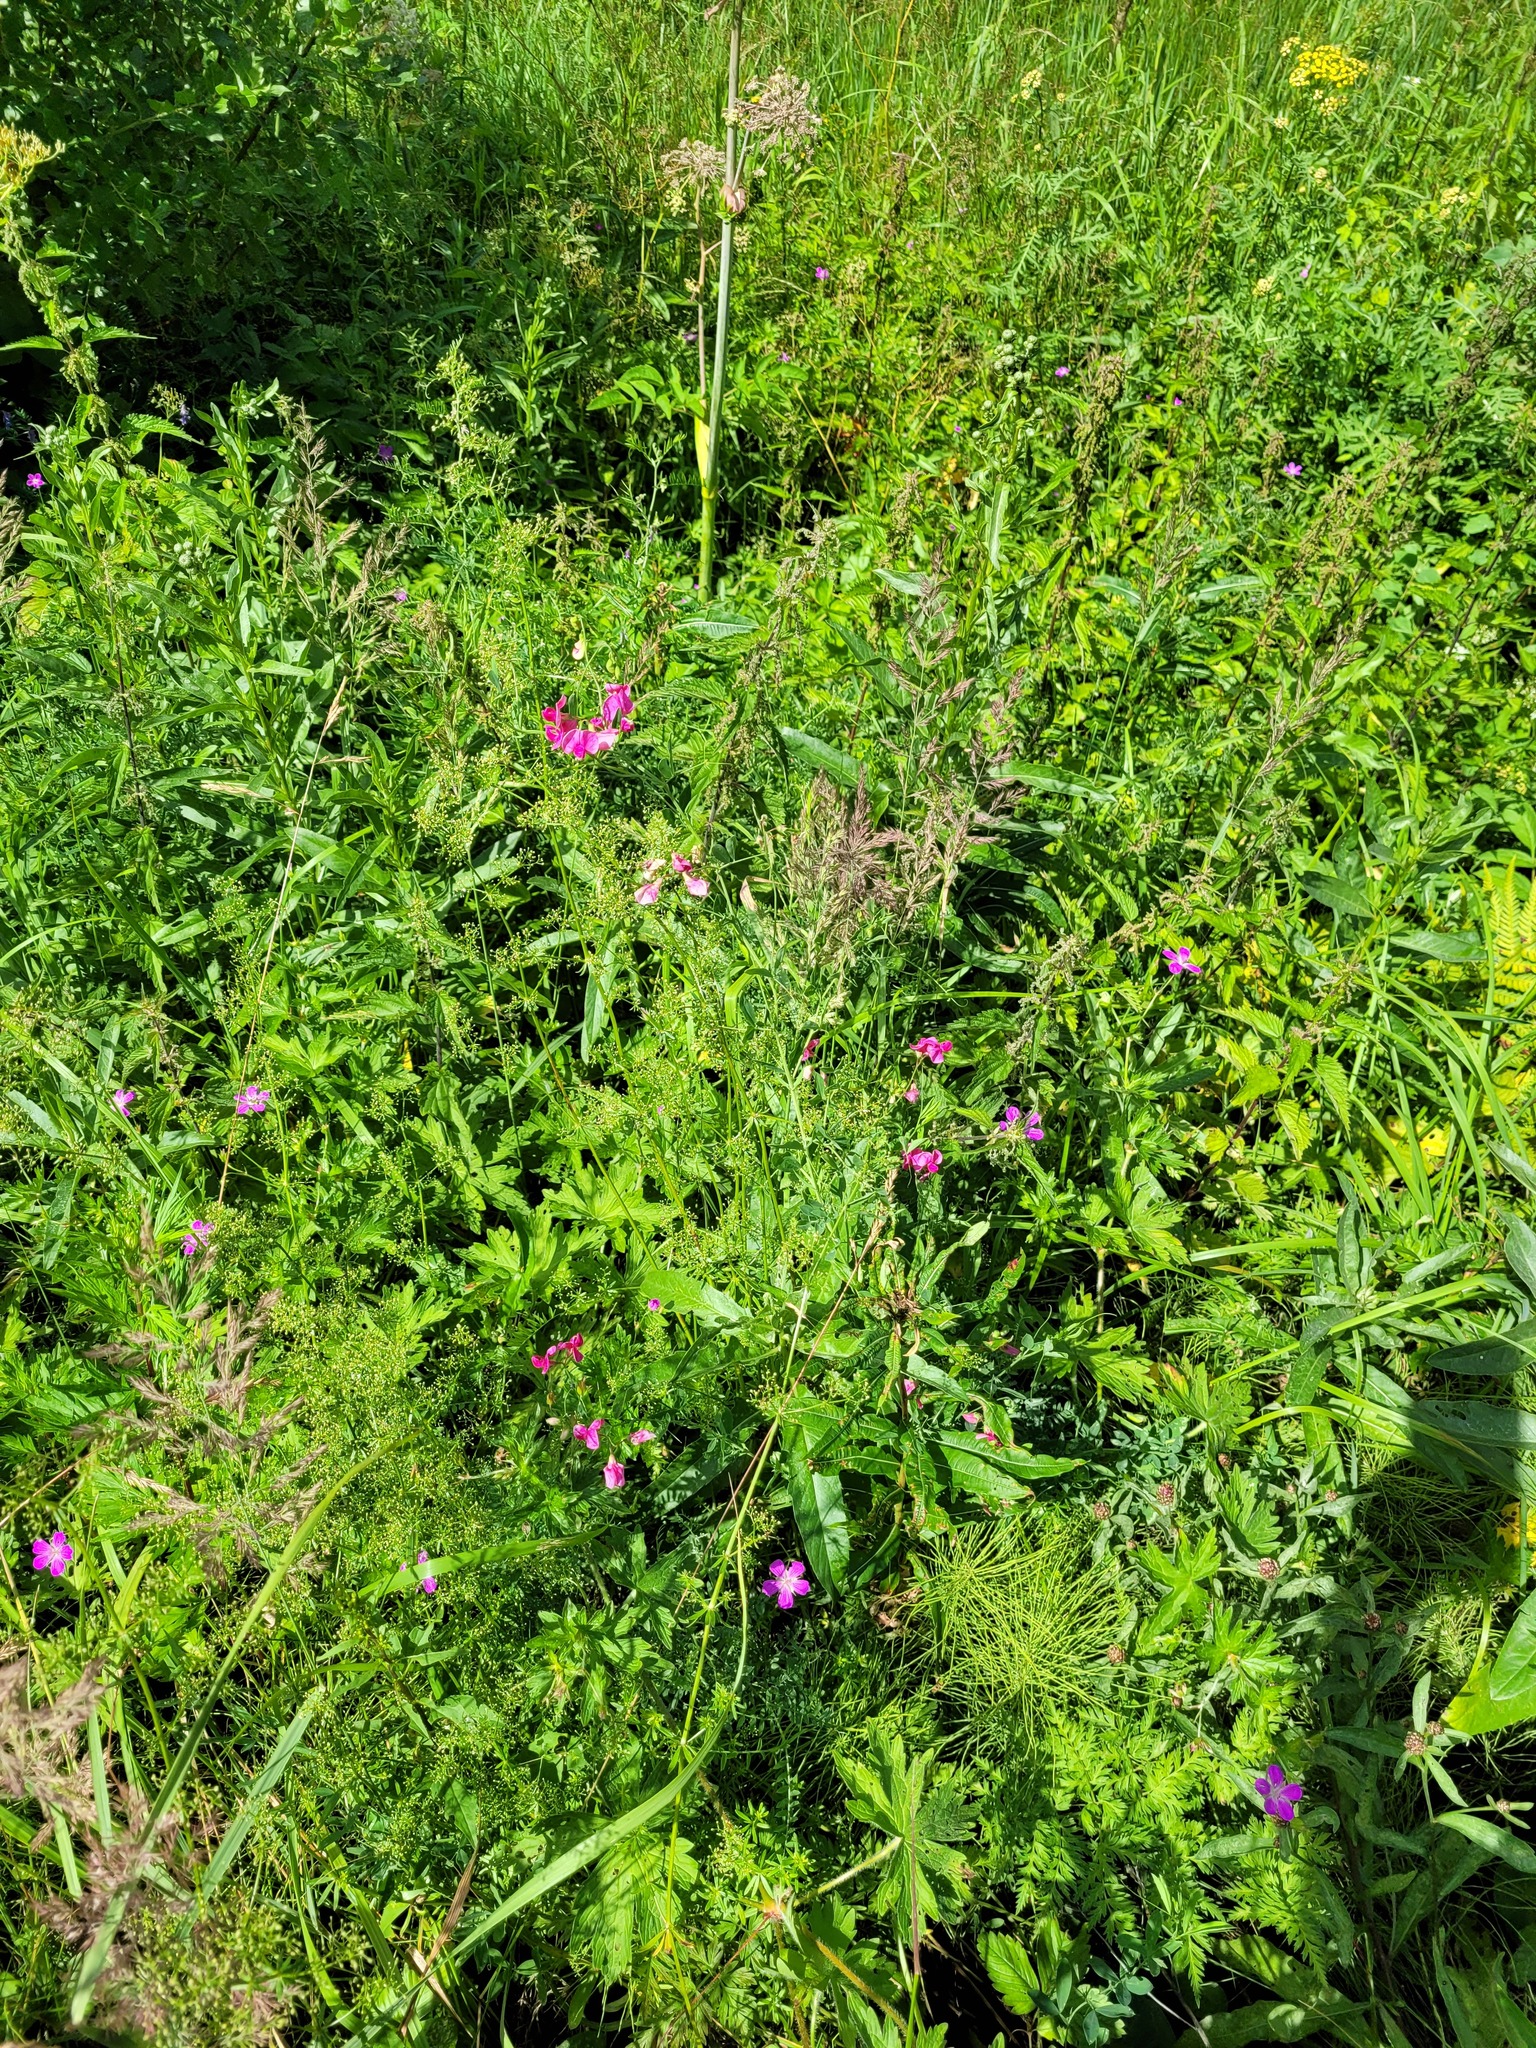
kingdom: Plantae
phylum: Tracheophyta
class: Magnoliopsida
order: Fabales
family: Fabaceae
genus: Lathyrus
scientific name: Lathyrus tuberosus
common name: Tuberous pea
